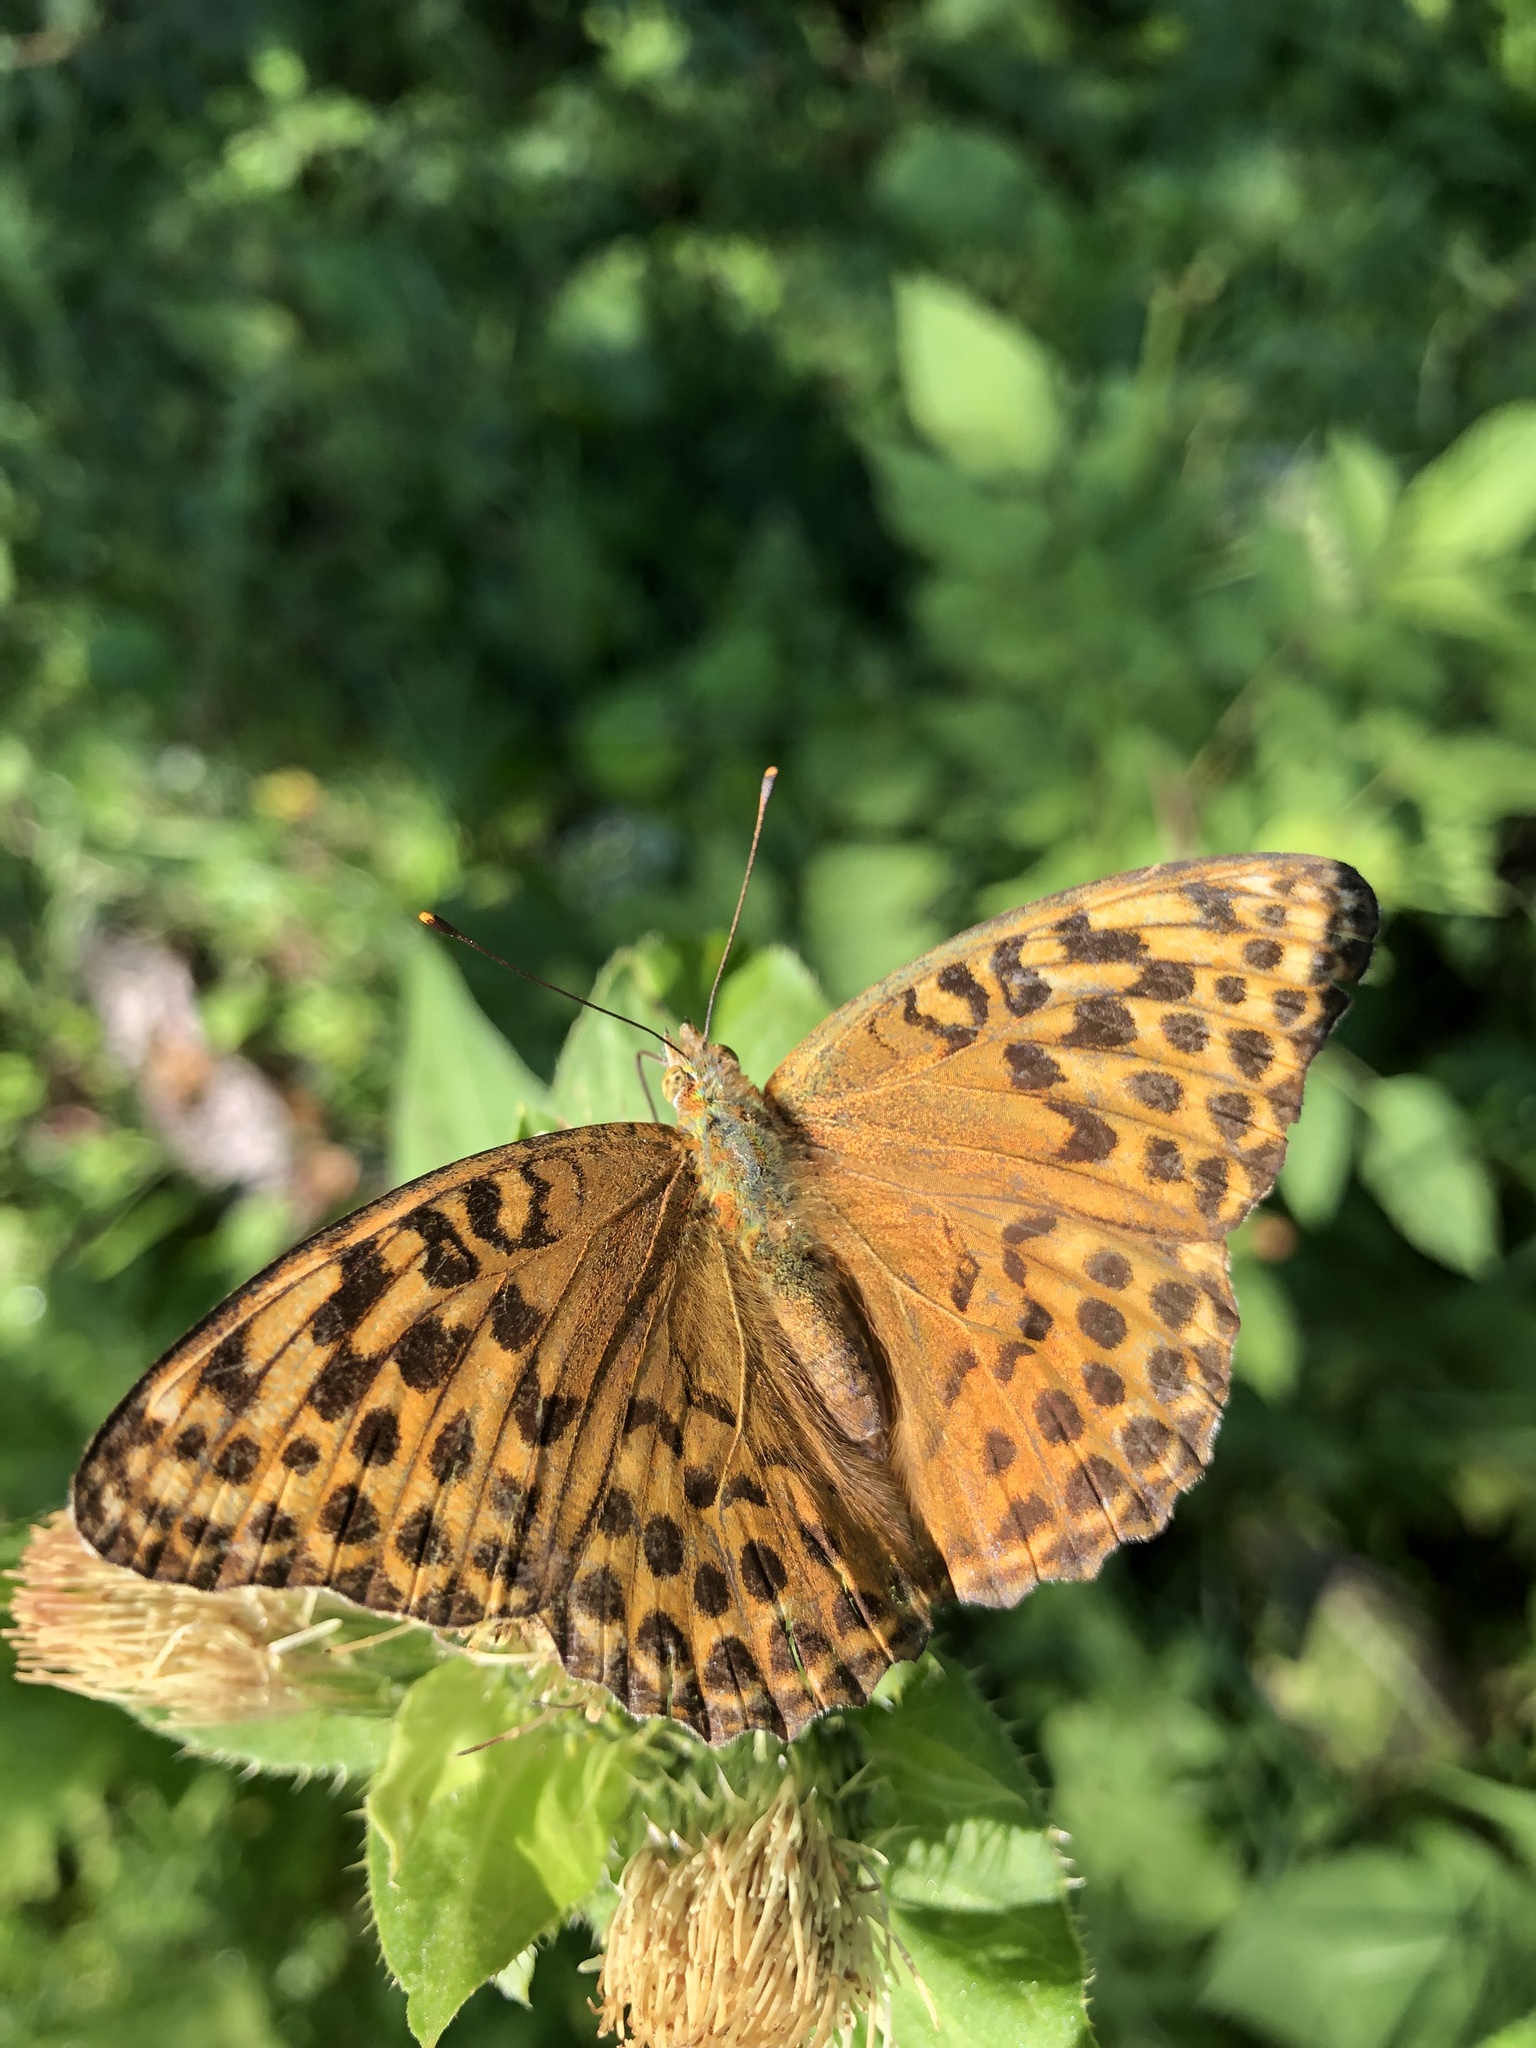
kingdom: Animalia
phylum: Arthropoda
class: Insecta
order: Lepidoptera
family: Nymphalidae
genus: Argynnis
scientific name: Argynnis paphia
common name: Silver-washed fritillary
